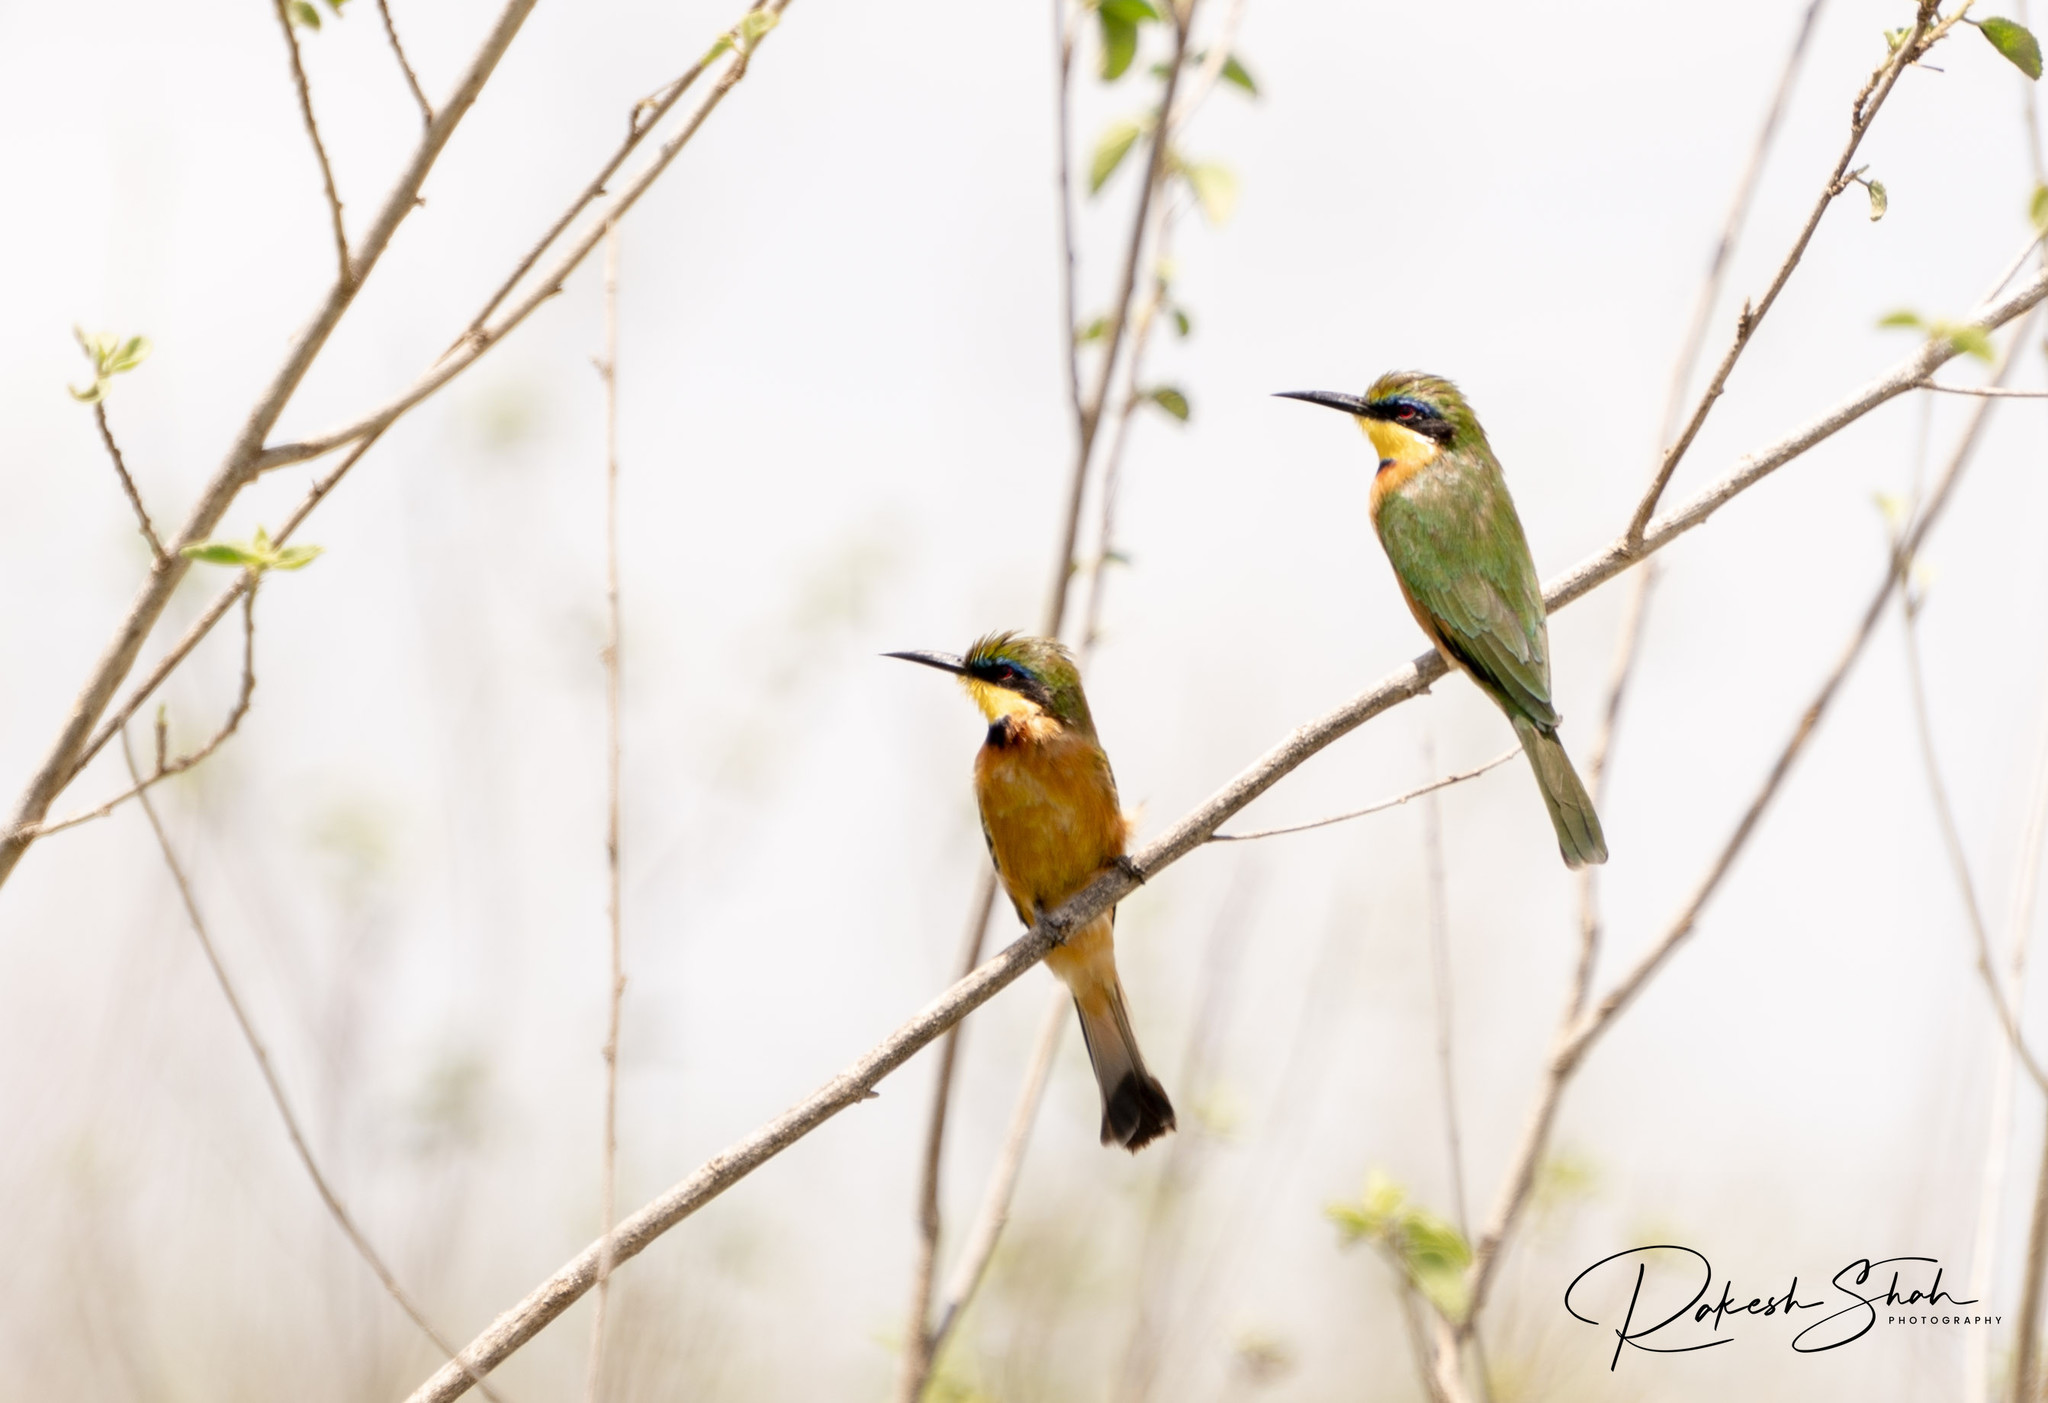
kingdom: Animalia
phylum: Chordata
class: Aves
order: Coraciiformes
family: Meropidae
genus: Merops
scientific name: Merops pusillus
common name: Little bee-eater
